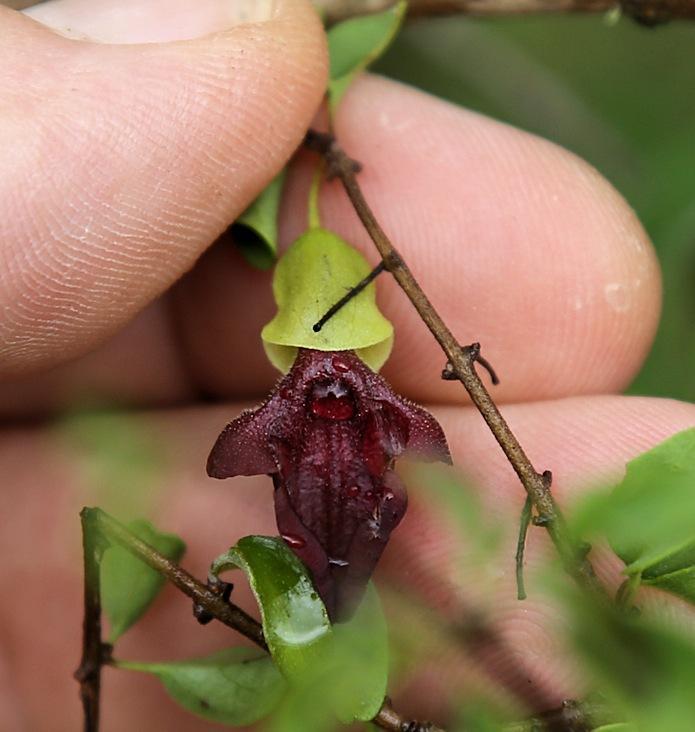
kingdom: Plantae
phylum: Tracheophyta
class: Magnoliopsida
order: Lamiales
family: Lamiaceae
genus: Tinnea
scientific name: Tinnea rhodesiana
